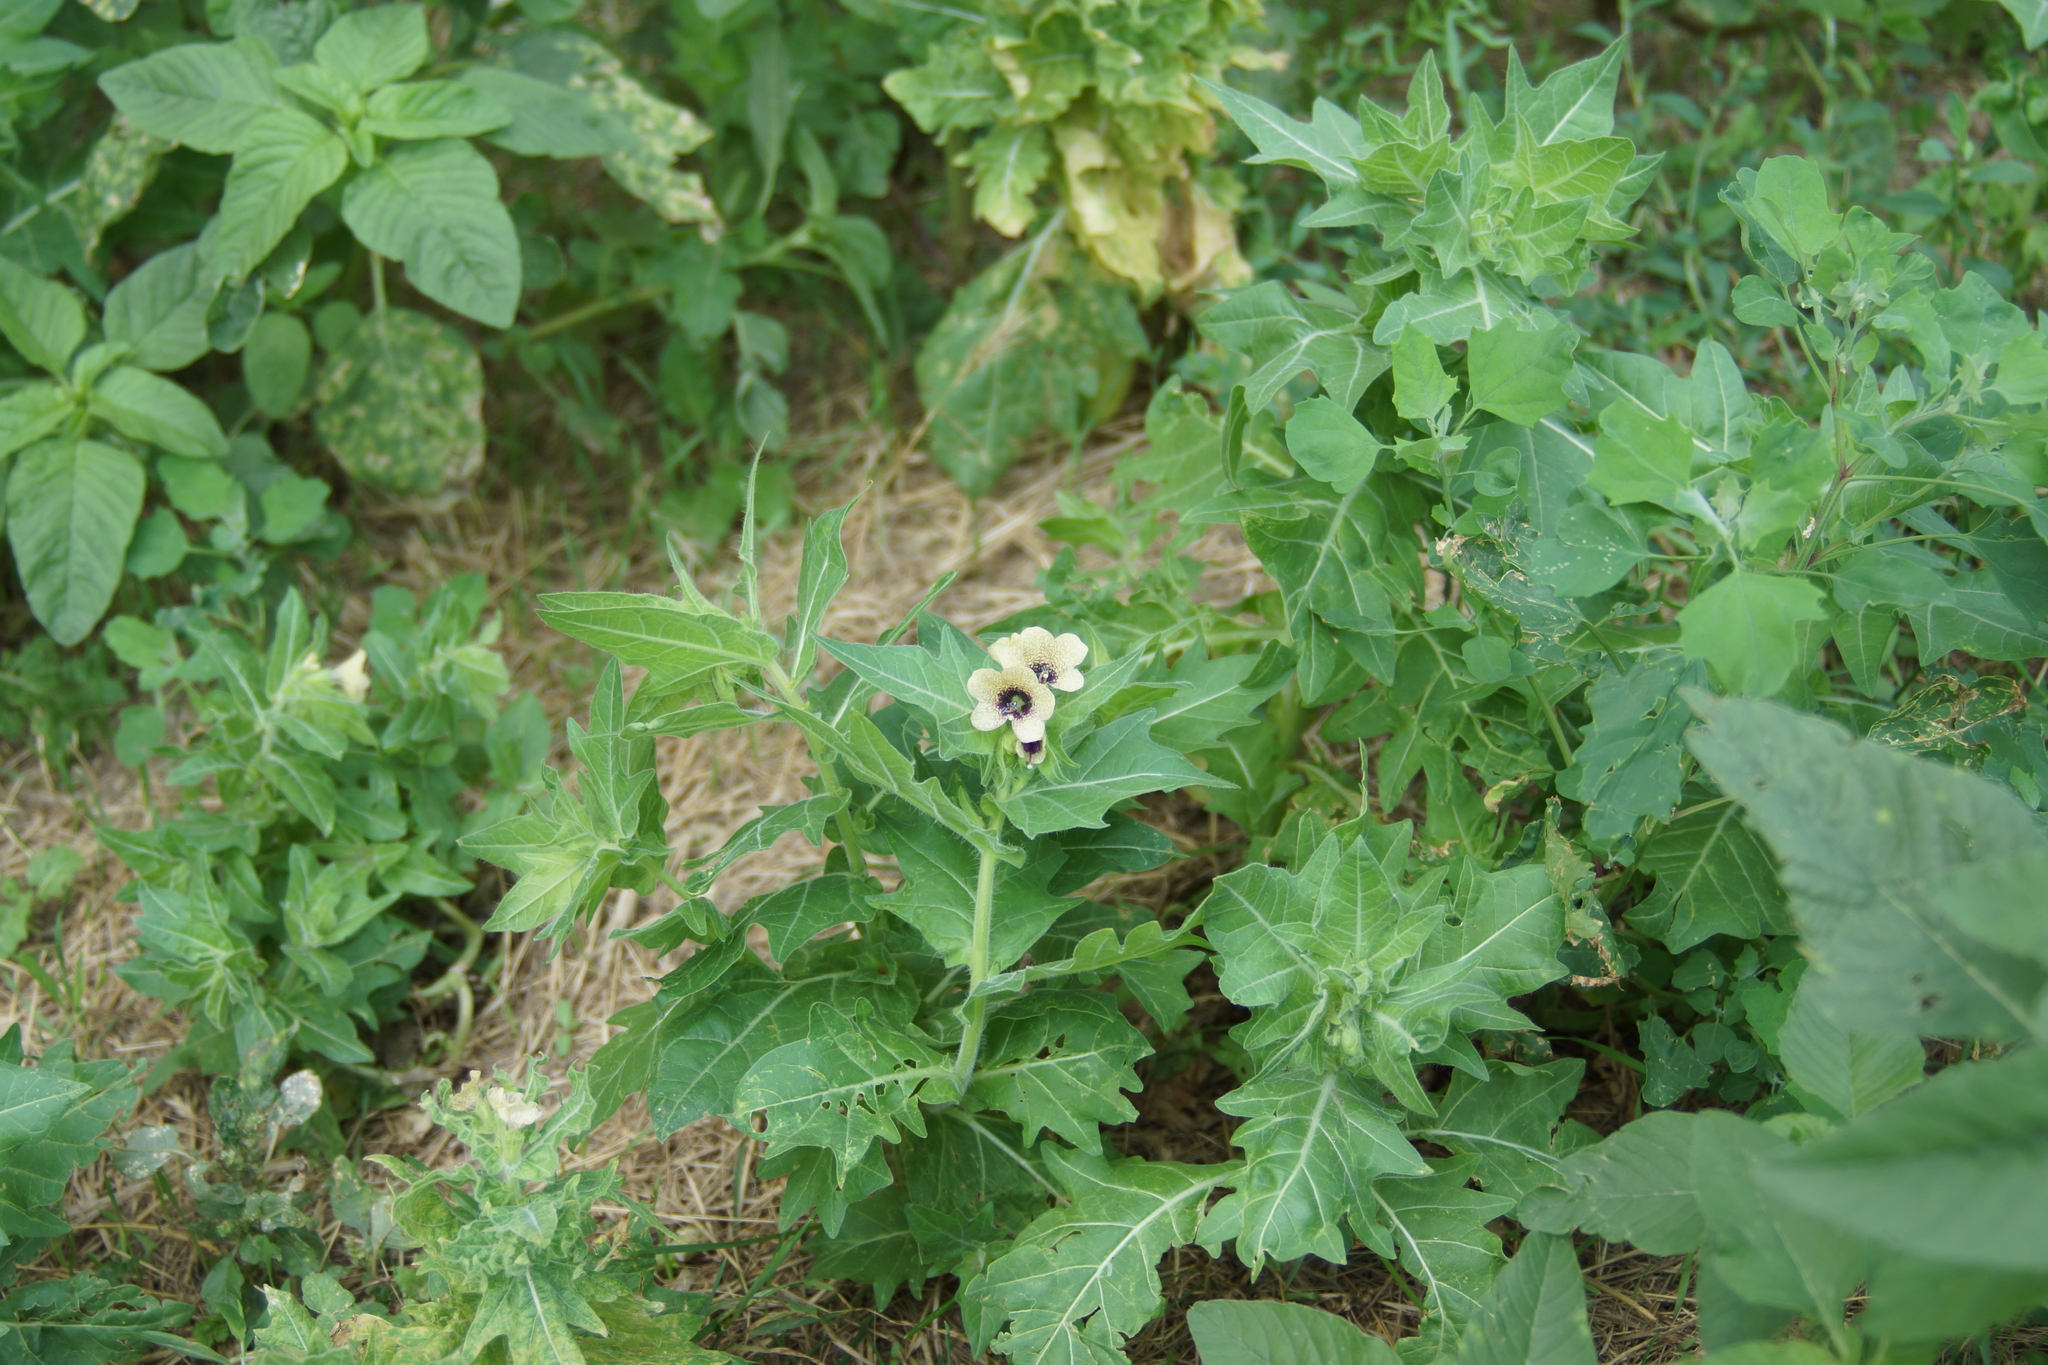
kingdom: Plantae
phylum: Tracheophyta
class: Magnoliopsida
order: Solanales
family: Solanaceae
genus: Hyoscyamus
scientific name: Hyoscyamus niger
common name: Henbane
